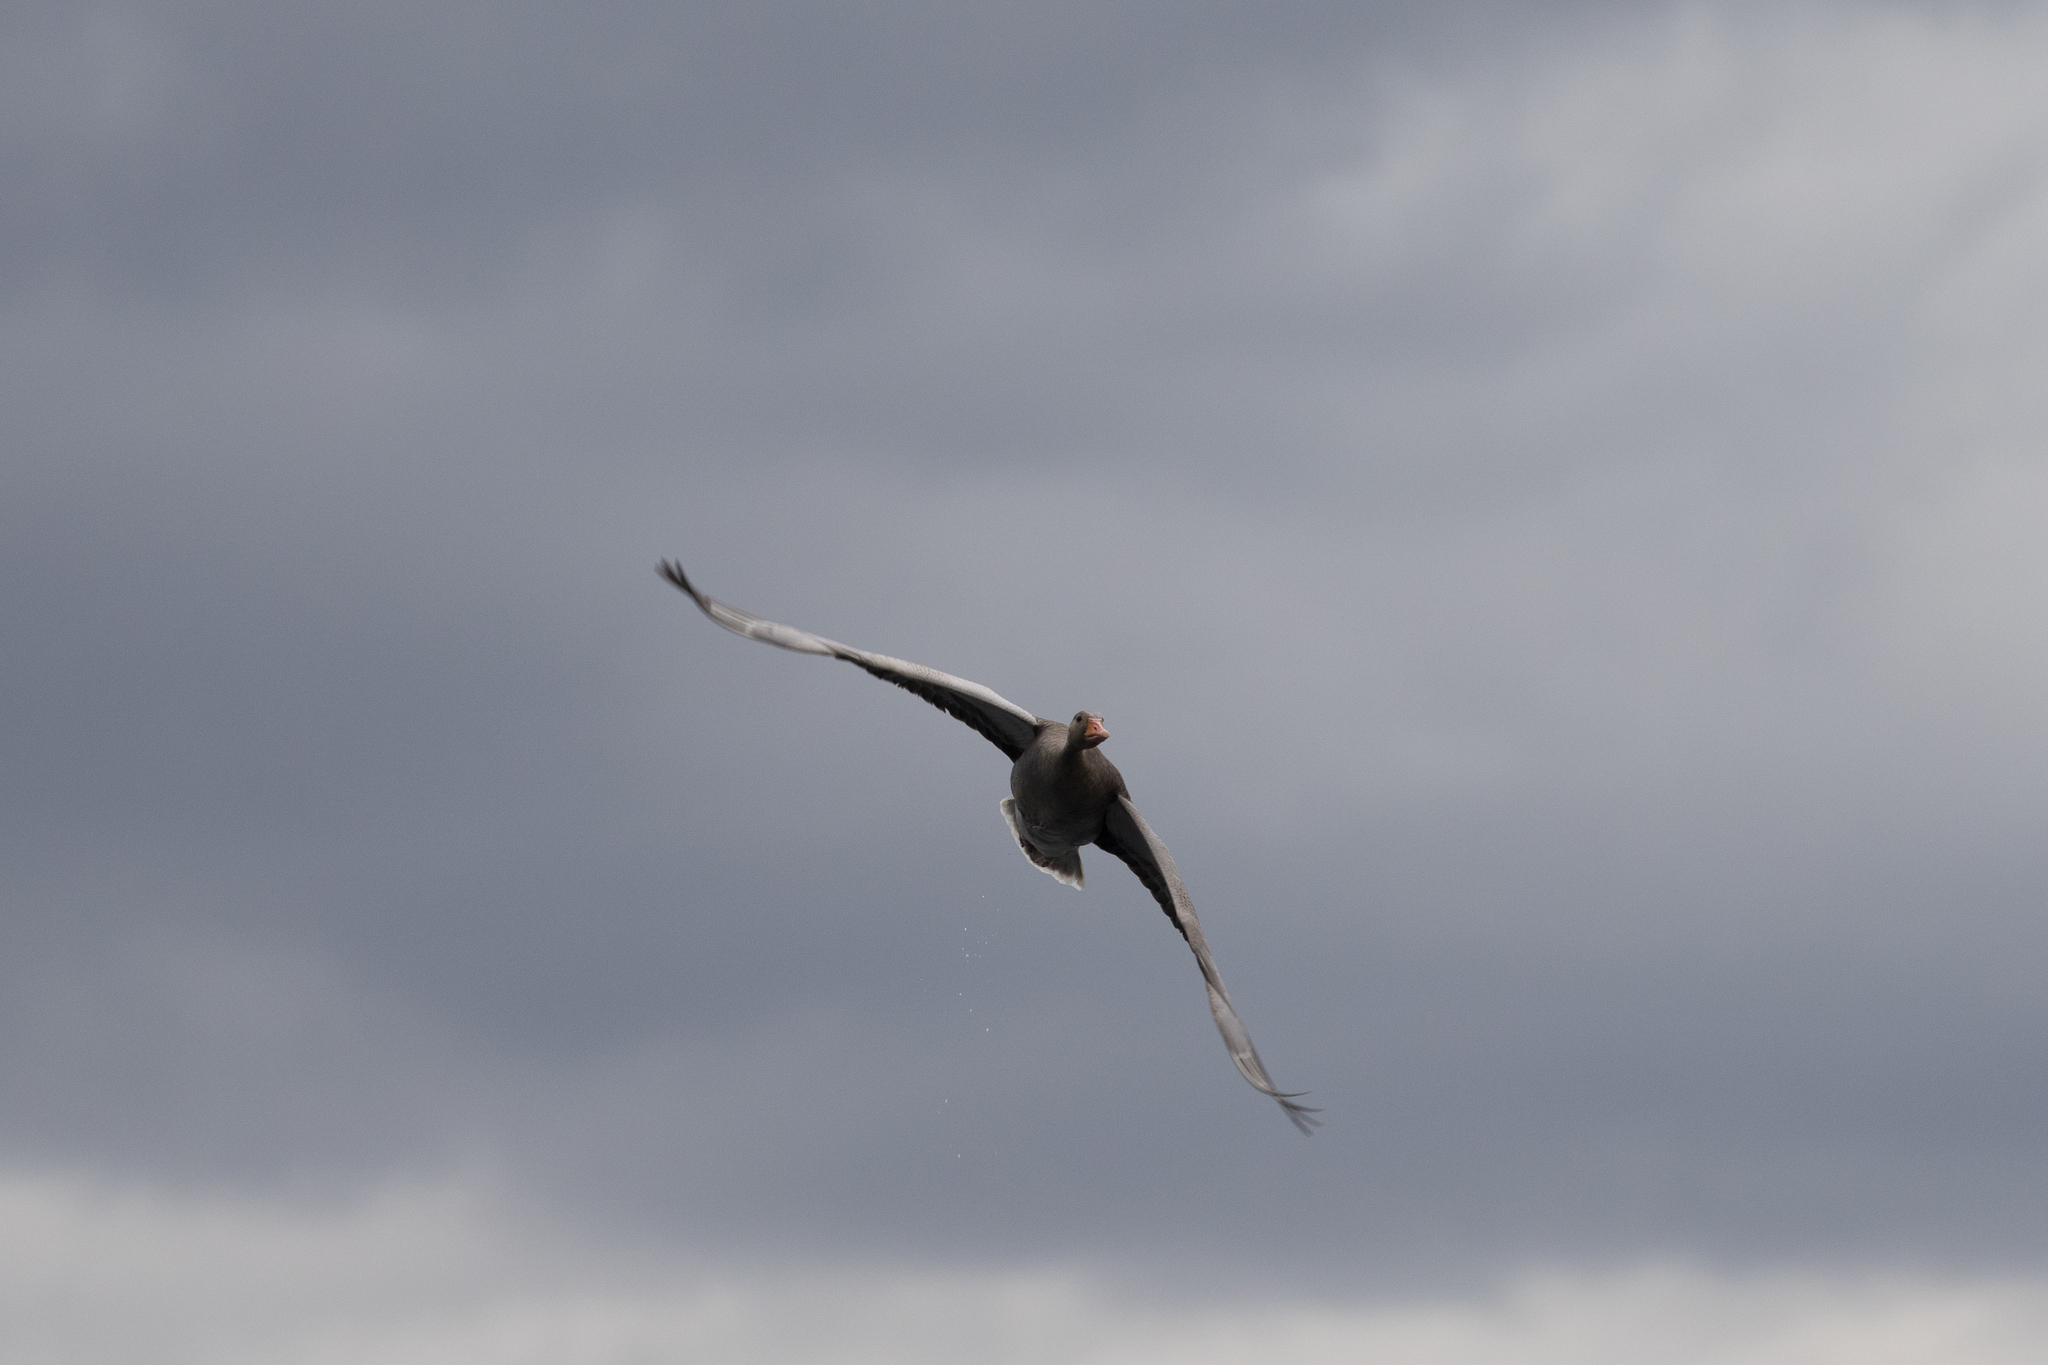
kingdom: Animalia
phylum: Chordata
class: Aves
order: Anseriformes
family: Anatidae
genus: Anser
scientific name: Anser anser
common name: Greylag goose
